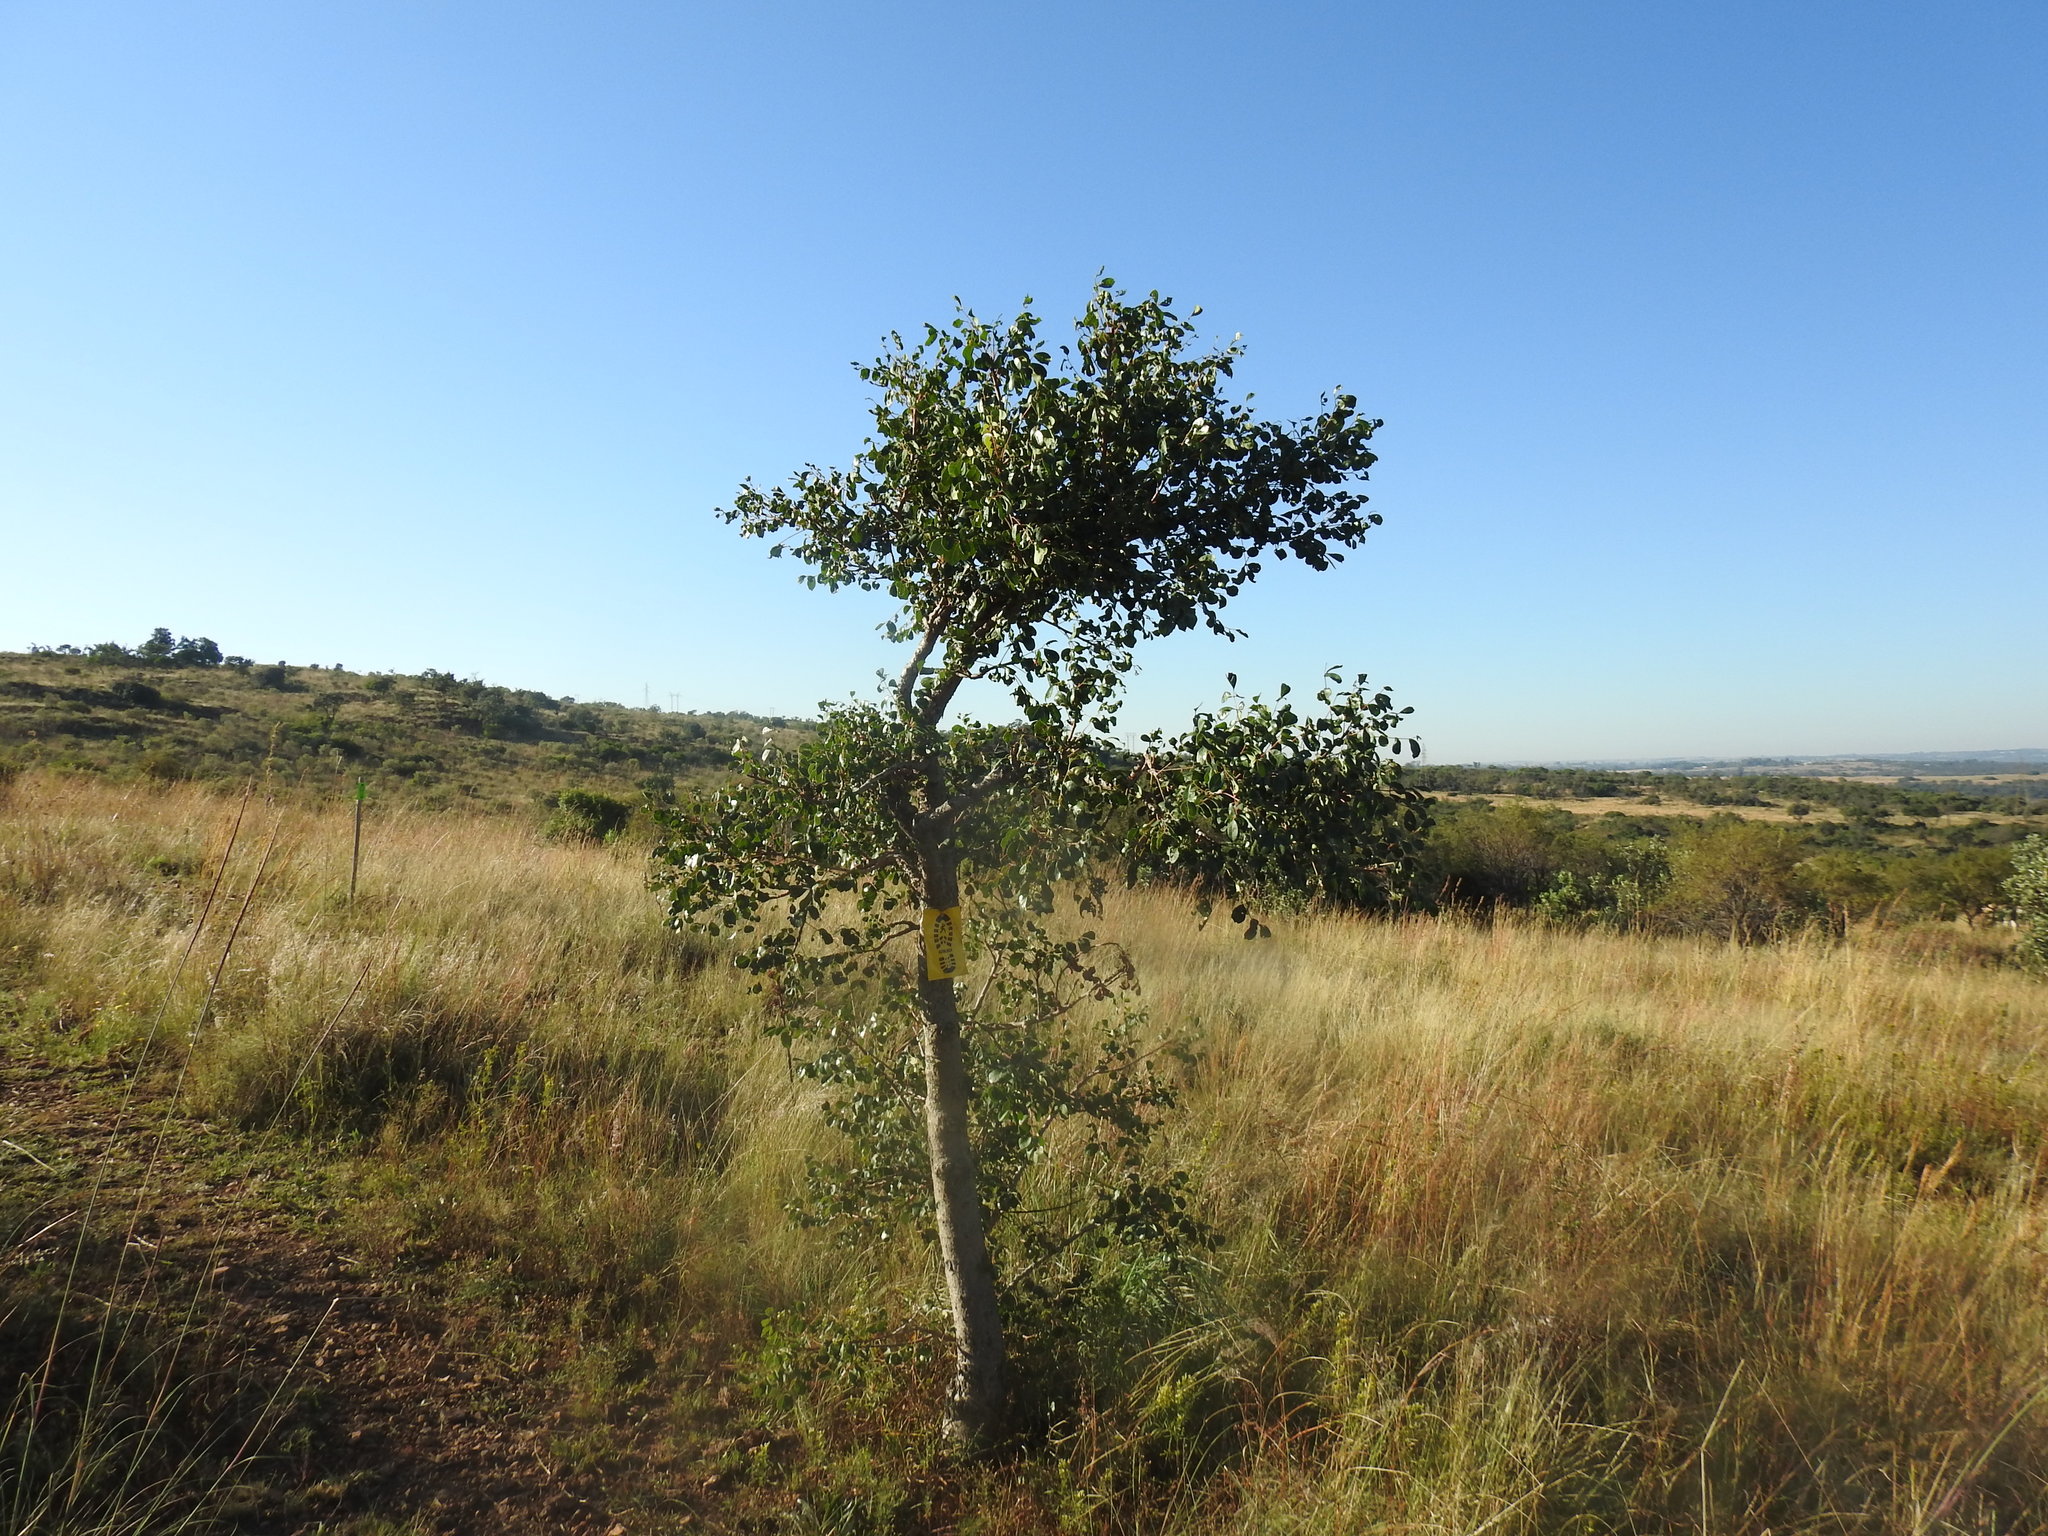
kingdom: Plantae
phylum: Tracheophyta
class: Magnoliopsida
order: Sapindales
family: Anacardiaceae
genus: Sclerocarya
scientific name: Sclerocarya birrea
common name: Marula
